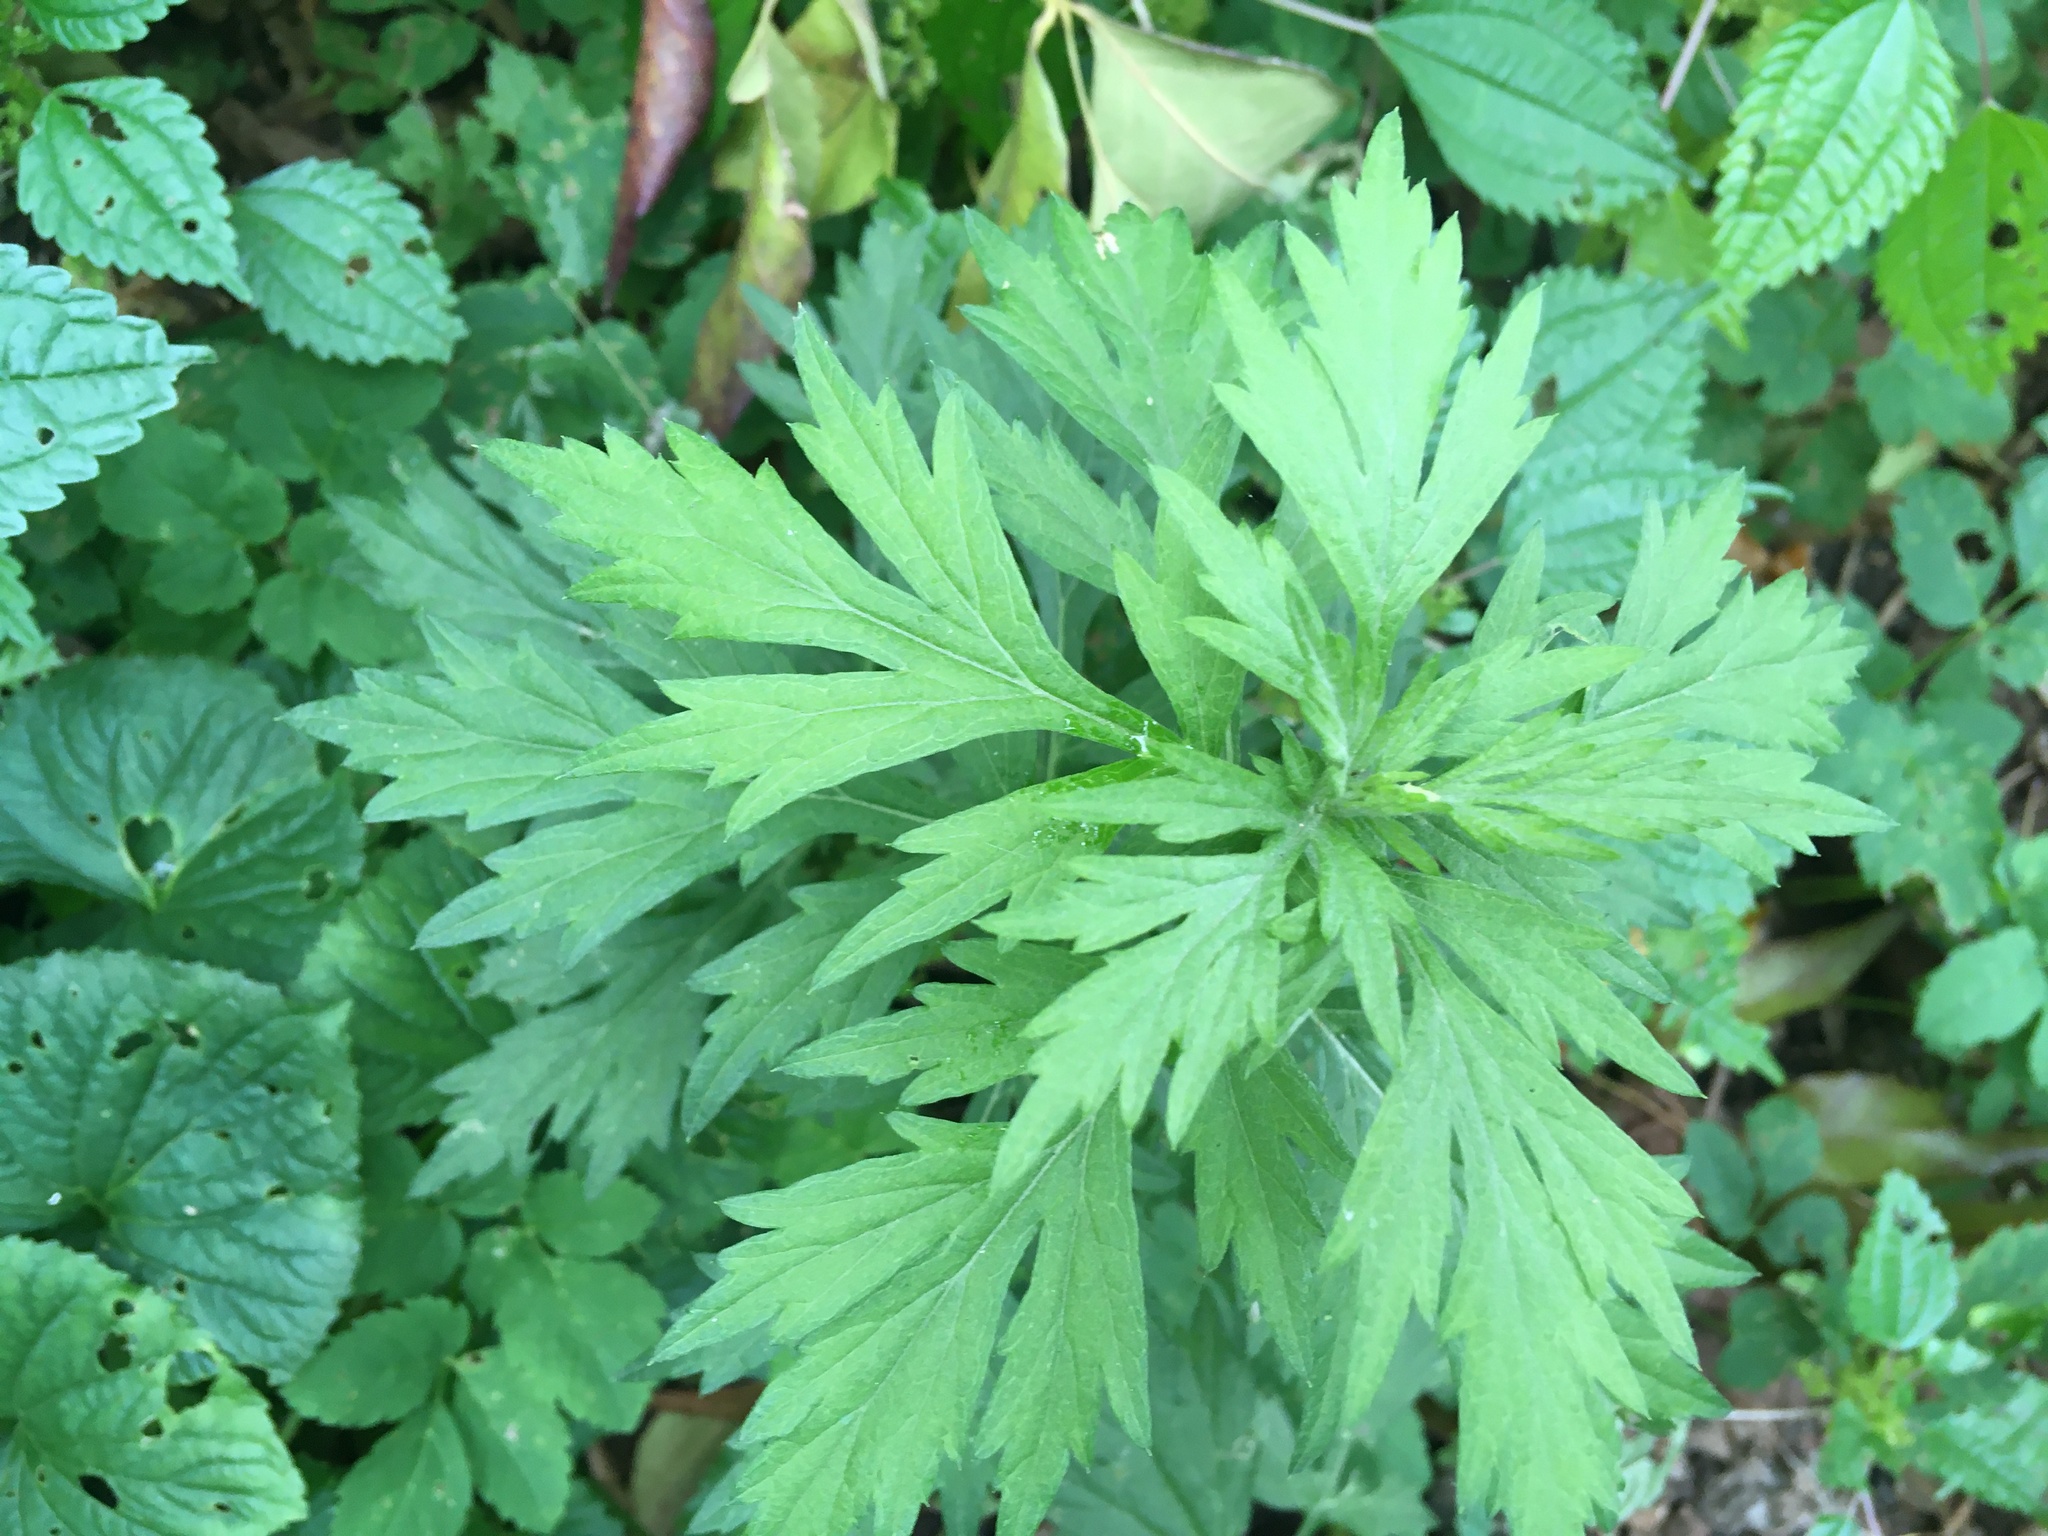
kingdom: Plantae
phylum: Tracheophyta
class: Magnoliopsida
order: Asterales
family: Asteraceae
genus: Artemisia
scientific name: Artemisia vulgaris
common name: Mugwort
